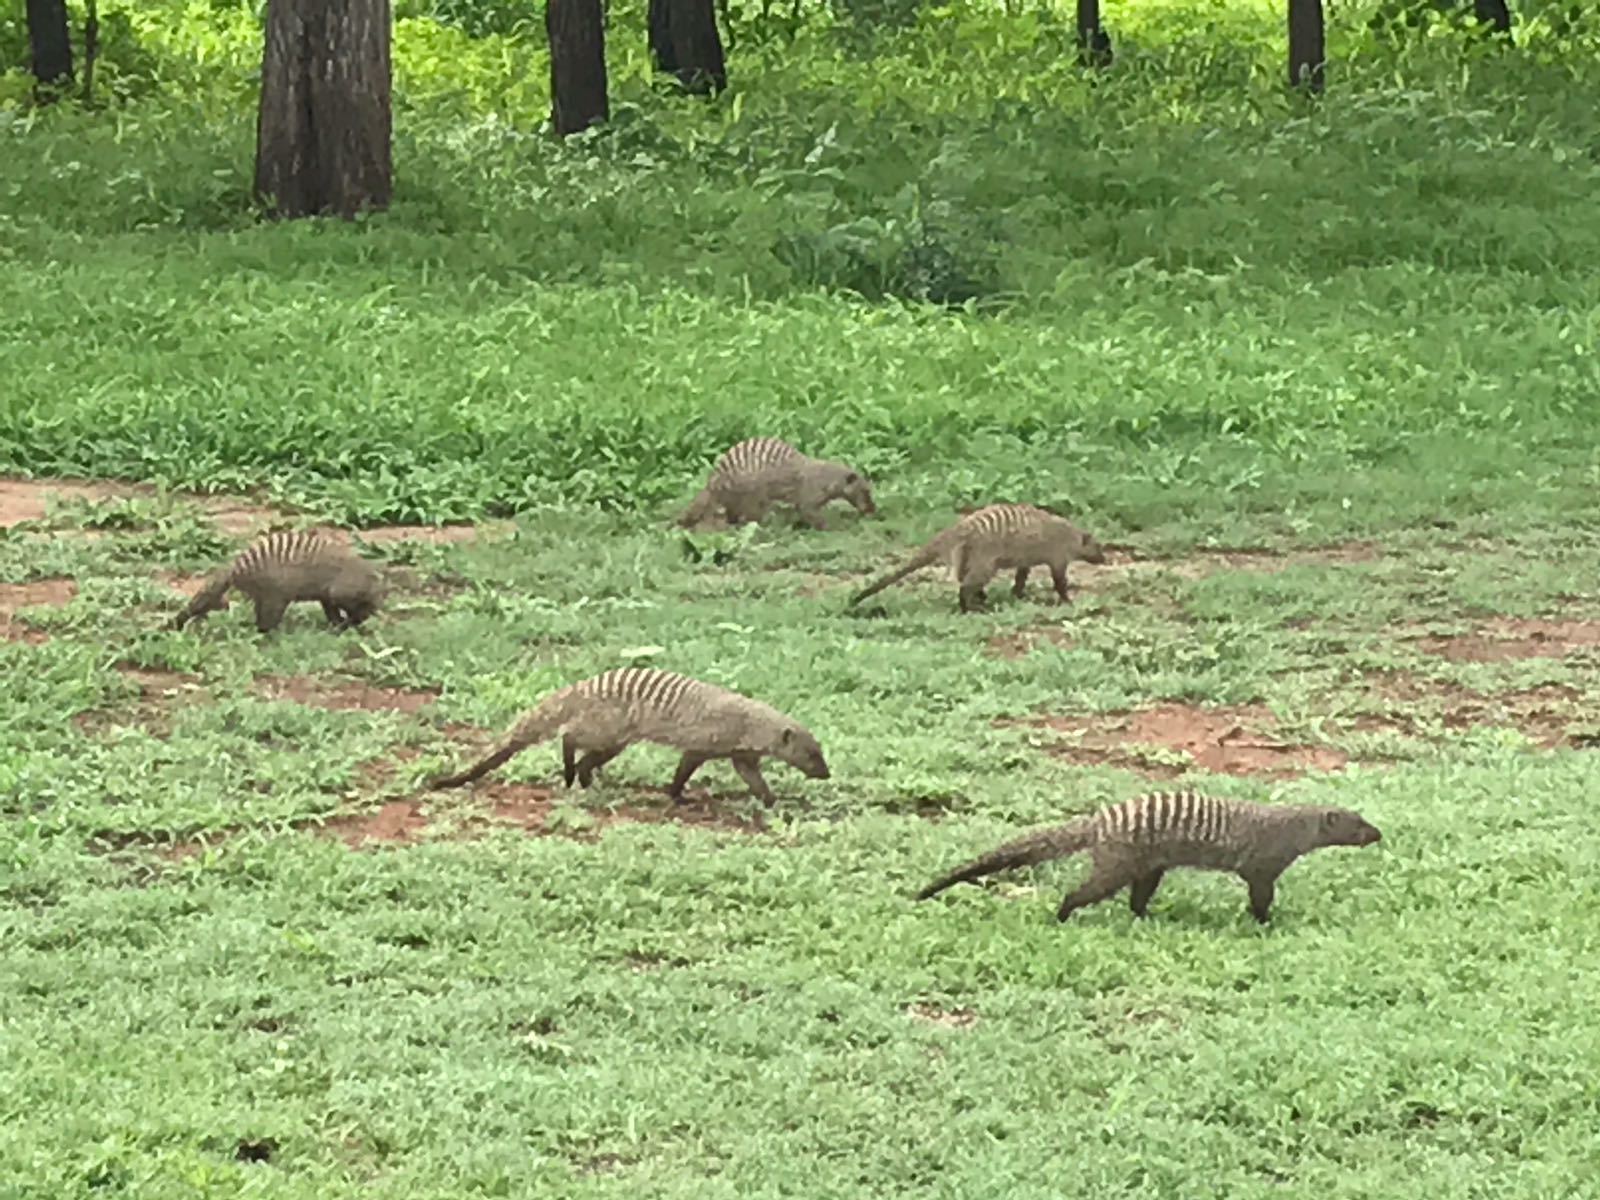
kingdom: Animalia
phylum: Chordata
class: Mammalia
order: Carnivora
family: Herpestidae
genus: Mungos
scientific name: Mungos mungo
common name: Banded mongoose
